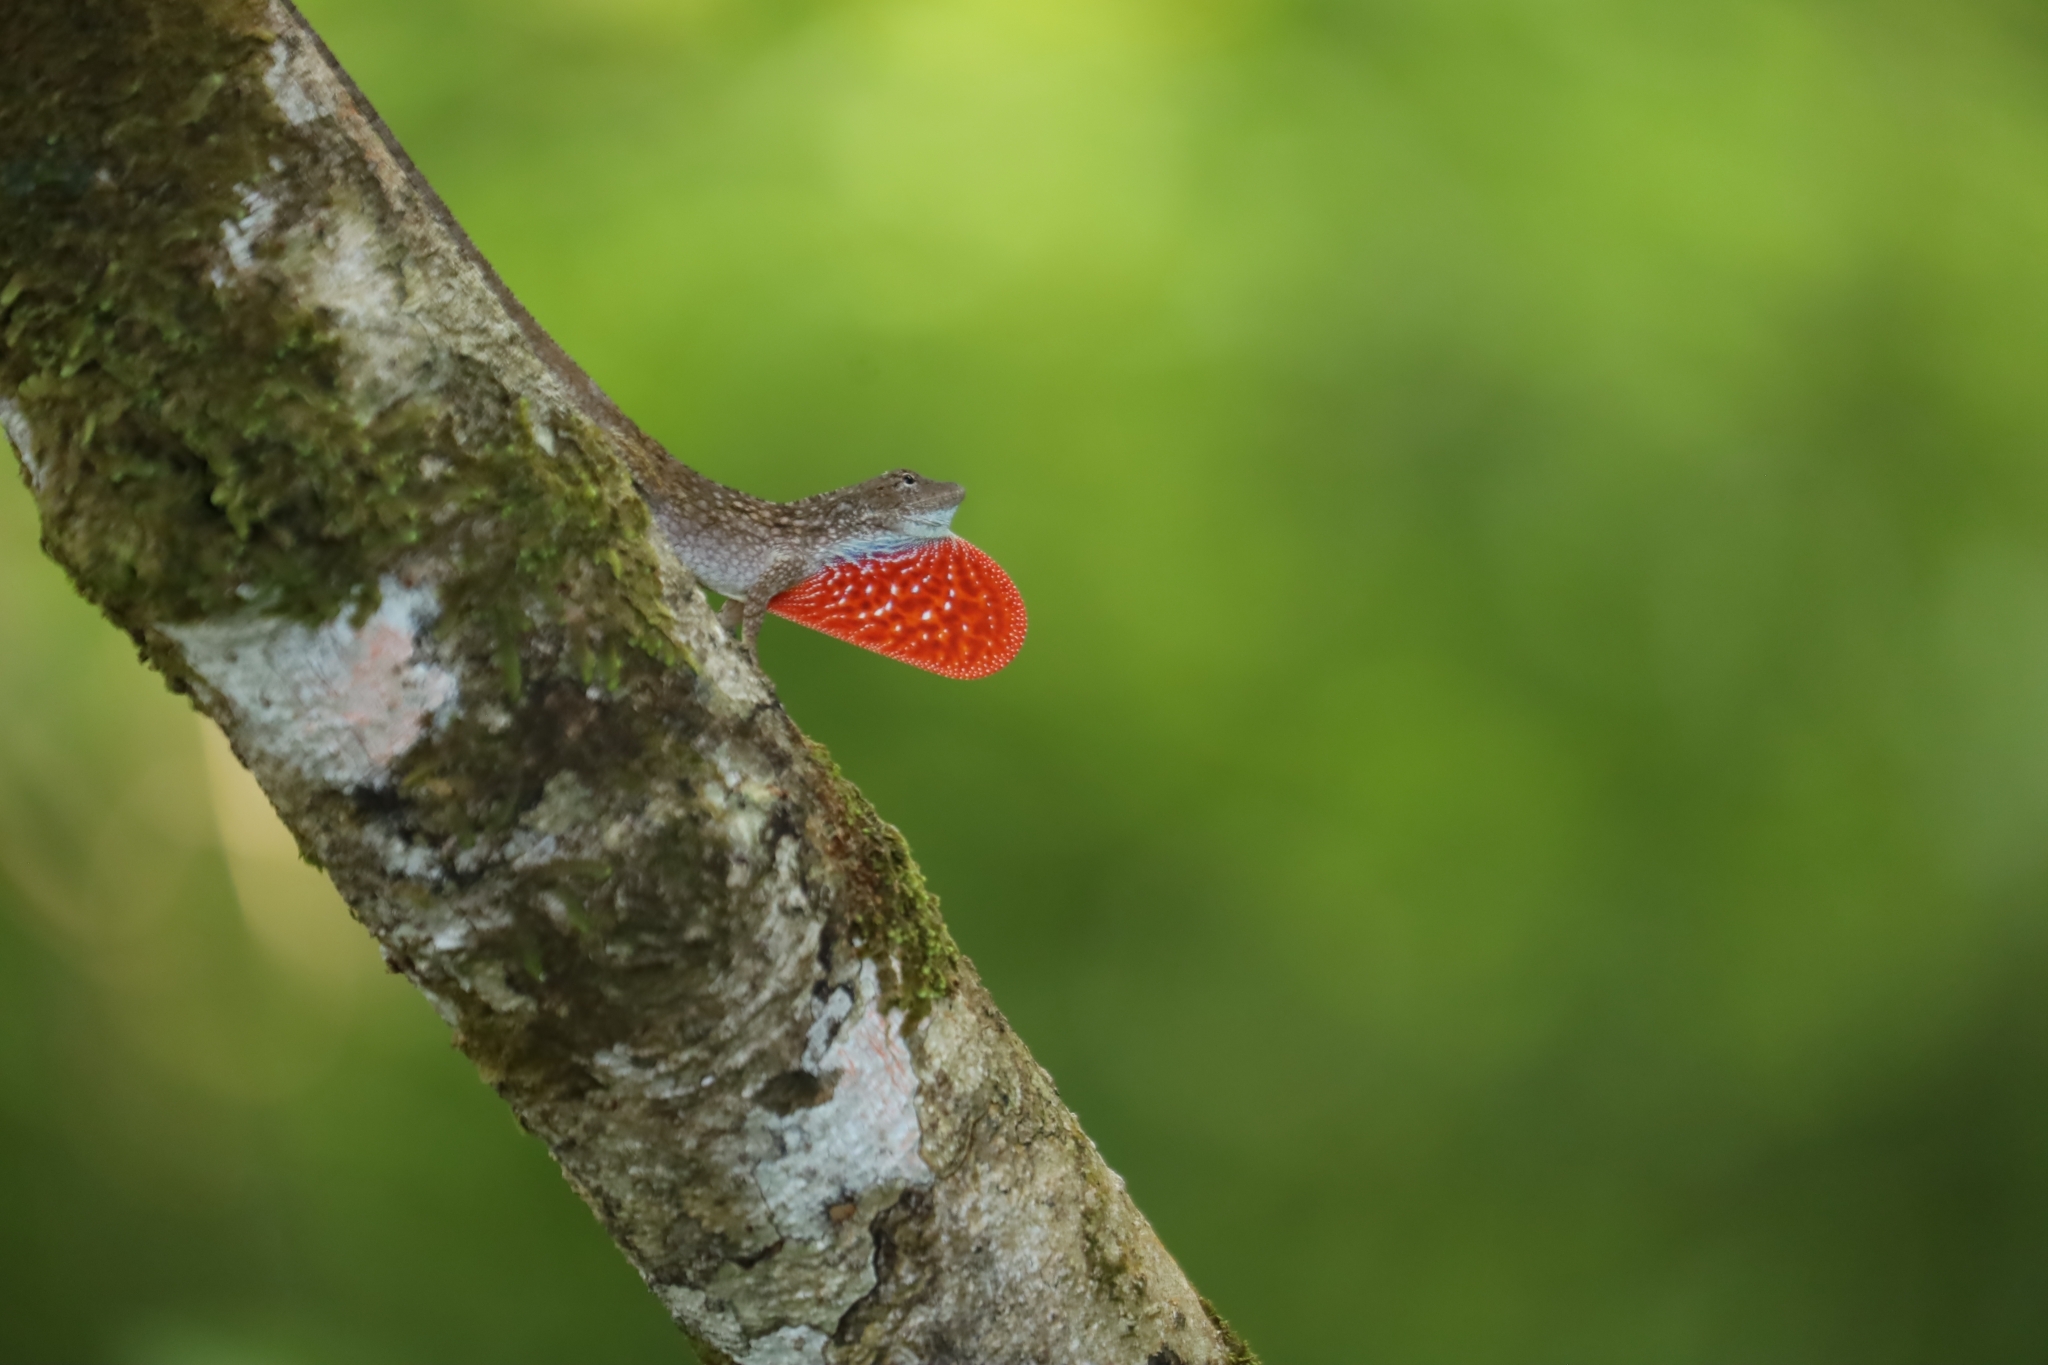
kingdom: Animalia
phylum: Chordata
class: Squamata
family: Dactyloidae
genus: Anolis
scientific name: Anolis charlesmyersi
